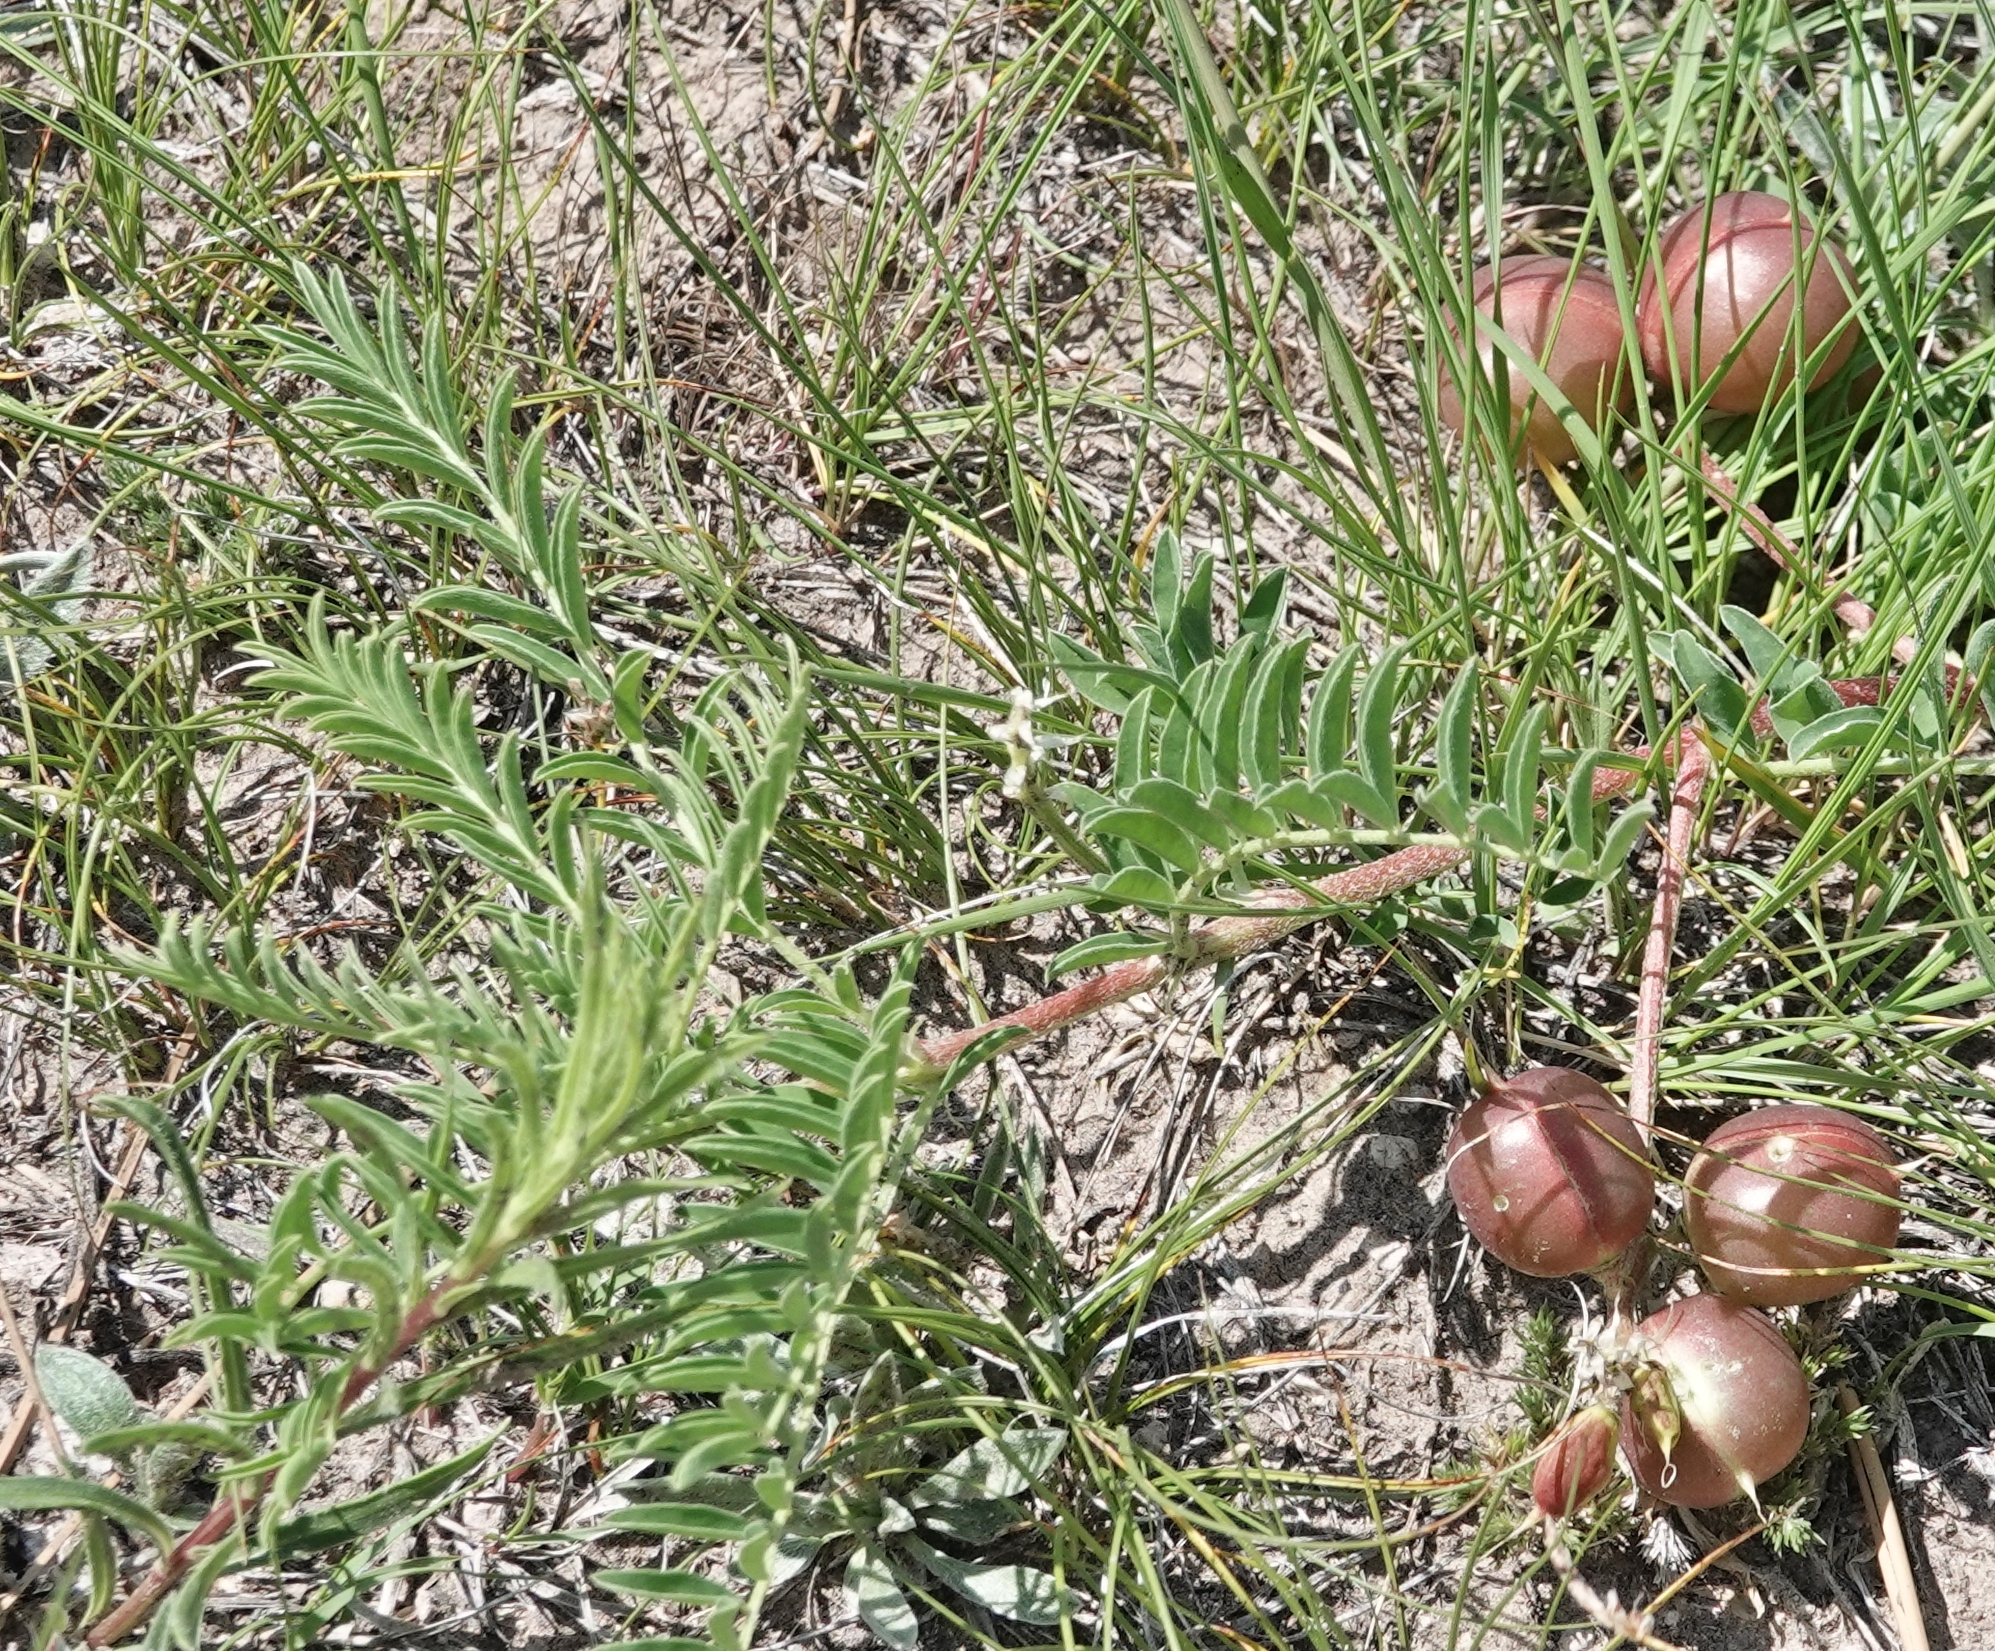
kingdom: Plantae
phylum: Tracheophyta
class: Magnoliopsida
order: Fabales
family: Fabaceae
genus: Astragalus
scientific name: Astragalus crassicarpus
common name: Ground-plum milk-vetch
